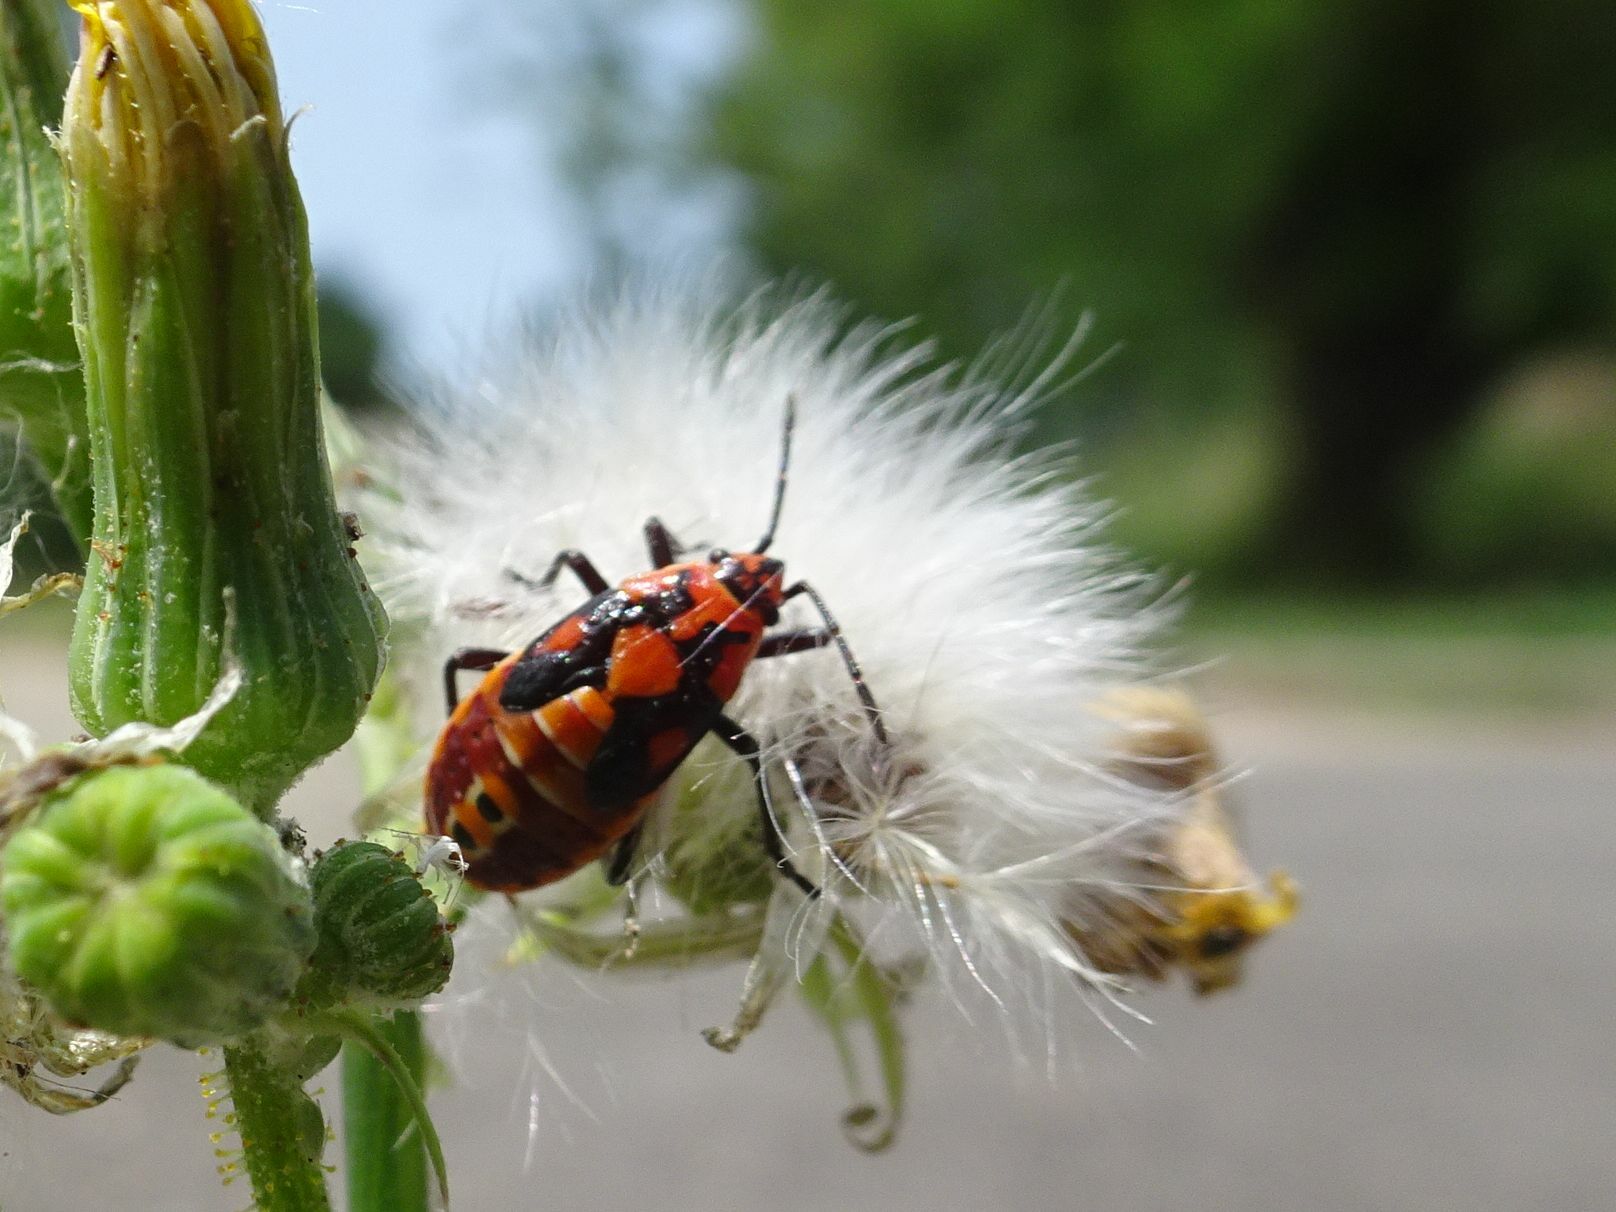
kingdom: Animalia
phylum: Arthropoda
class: Insecta
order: Hemiptera
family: Lygaeidae
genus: Spilostethus
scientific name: Spilostethus pandurus
